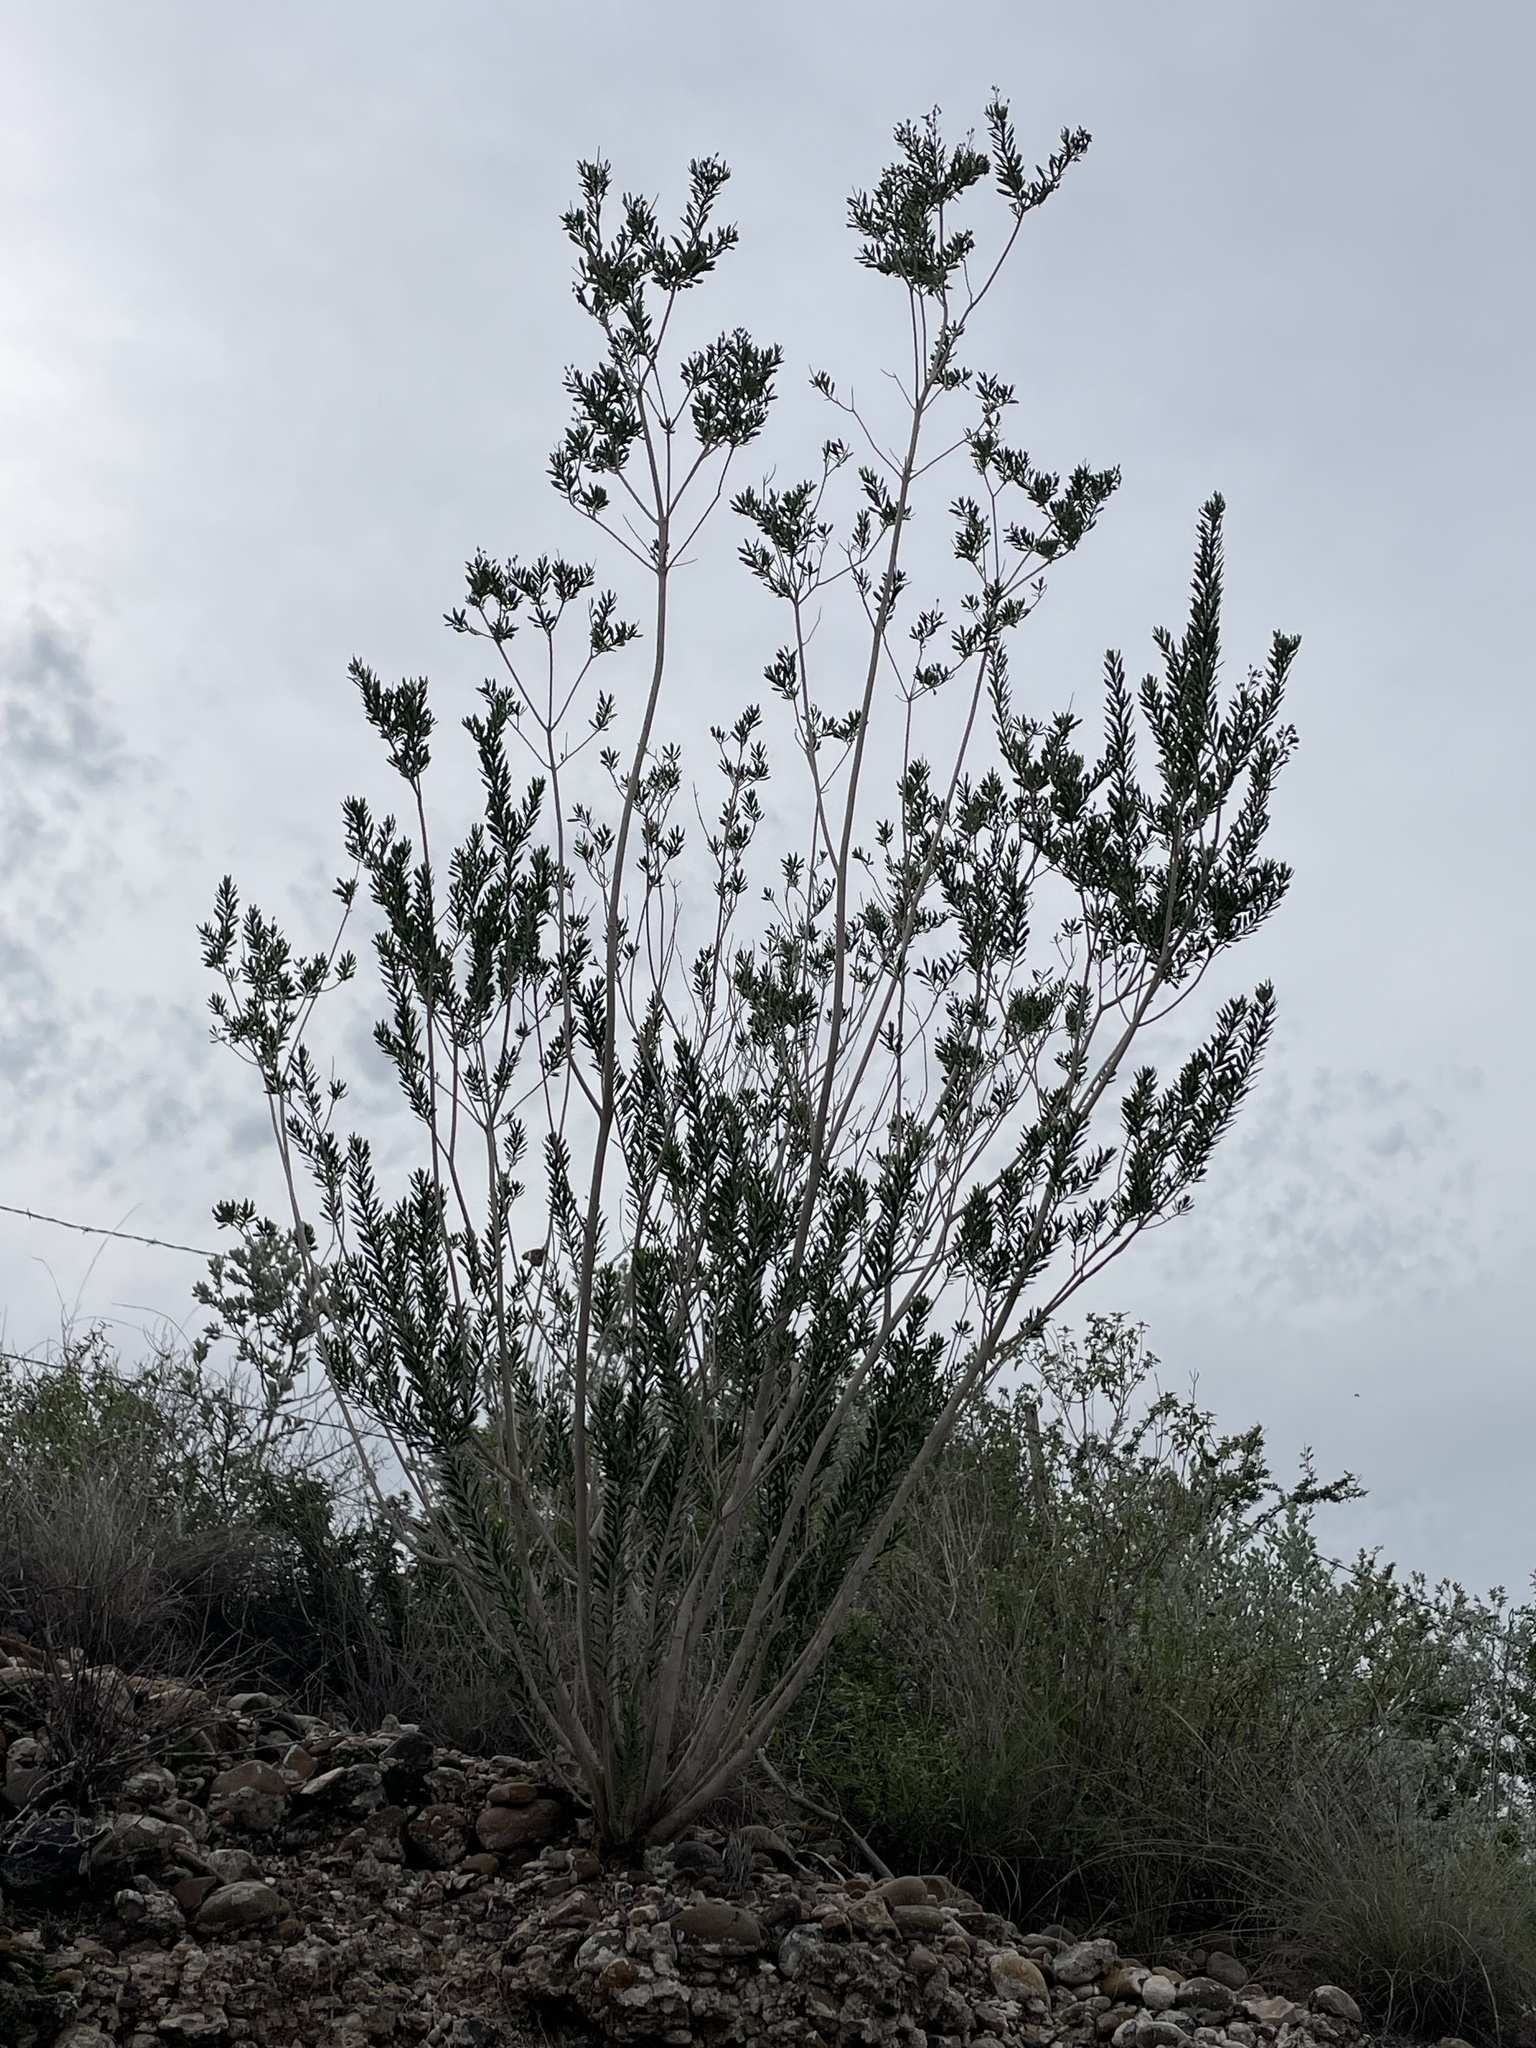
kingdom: Plantae
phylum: Tracheophyta
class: Magnoliopsida
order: Celastrales
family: Celastraceae
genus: Mortonia
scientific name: Mortonia greggii
